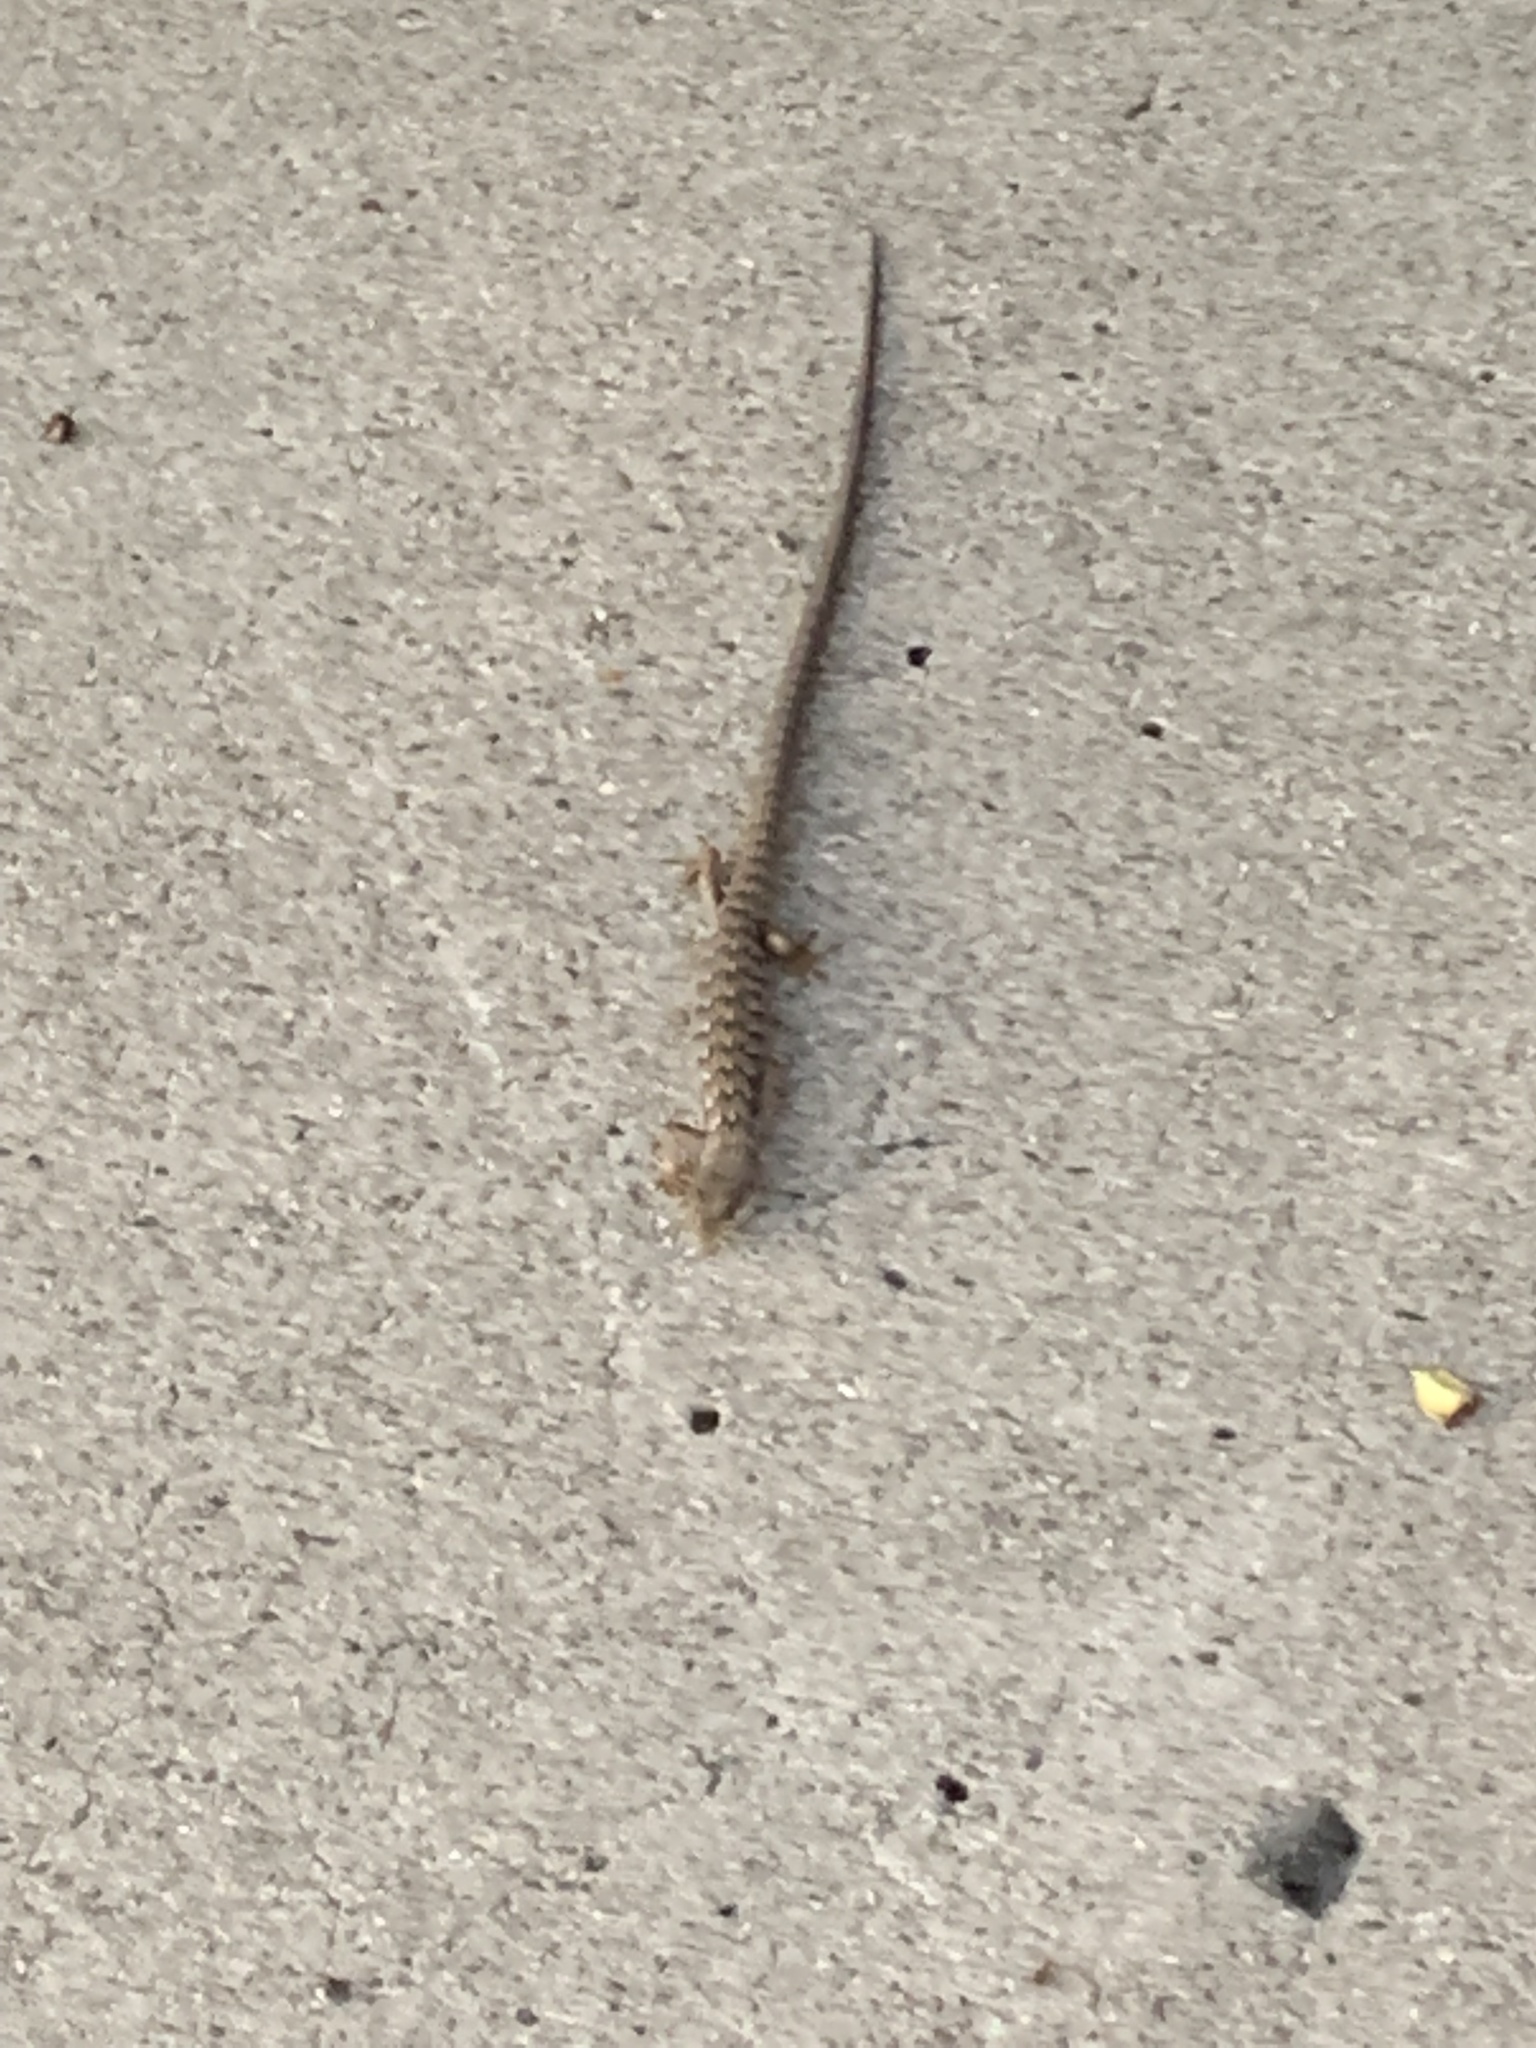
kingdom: Animalia
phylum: Chordata
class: Squamata
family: Anguidae
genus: Elgaria
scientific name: Elgaria multicarinata
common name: Southern alligator lizard
